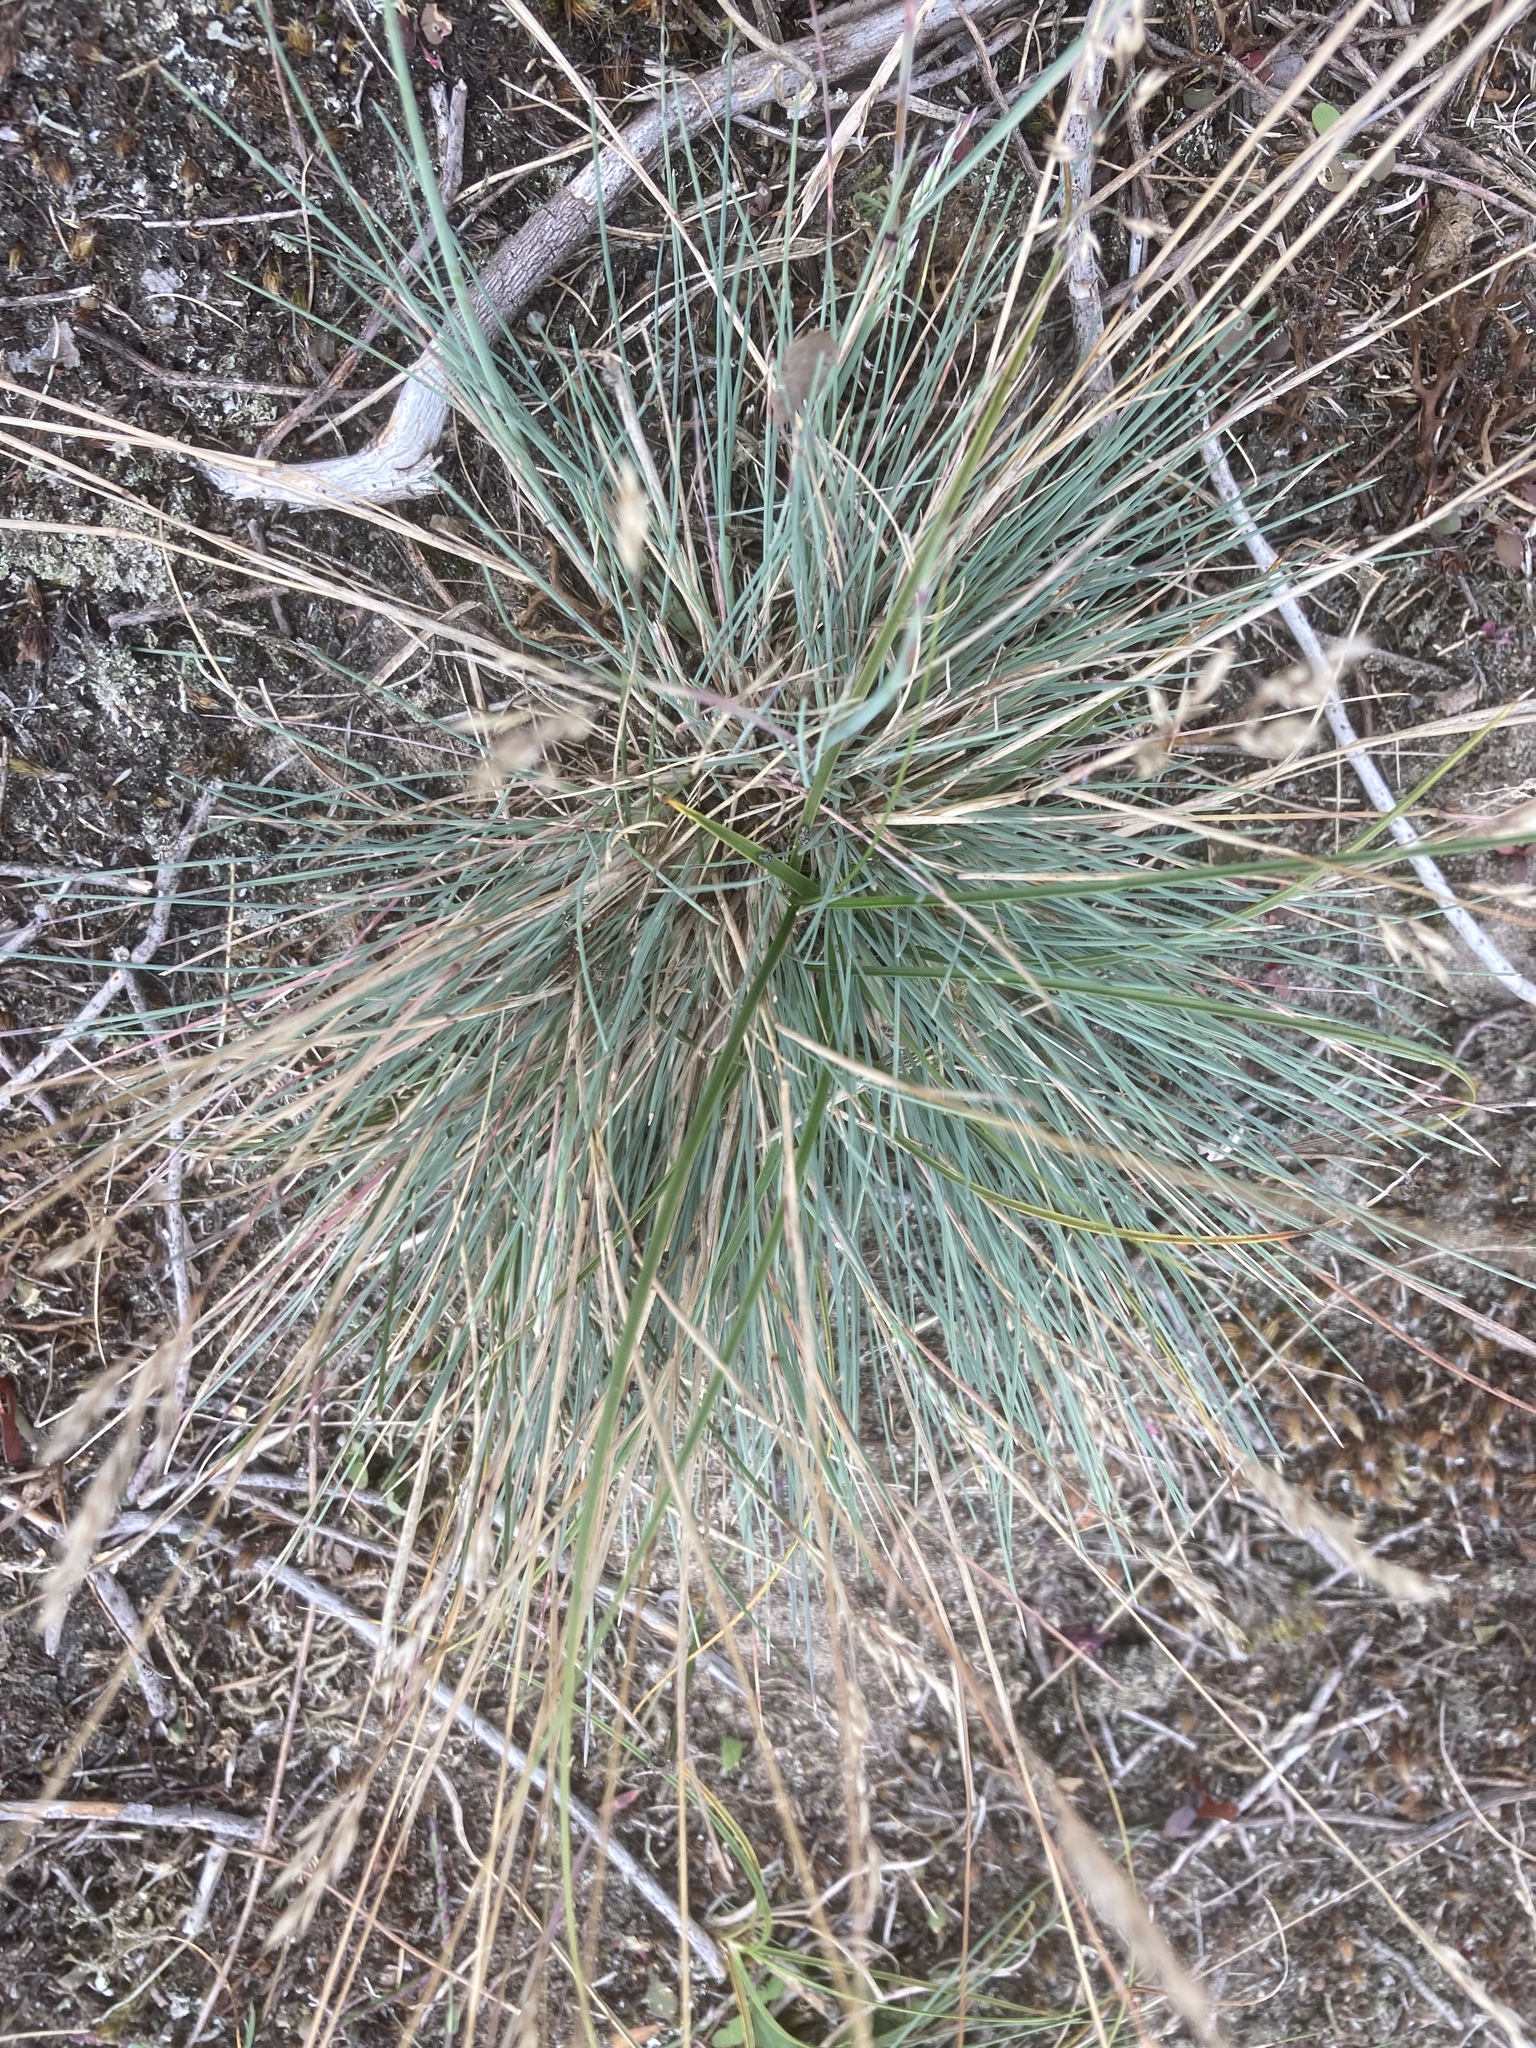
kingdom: Plantae
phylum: Tracheophyta
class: Liliopsida
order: Poales
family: Poaceae
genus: Corynephorus
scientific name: Corynephorus canescens
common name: Grey hair-grass
